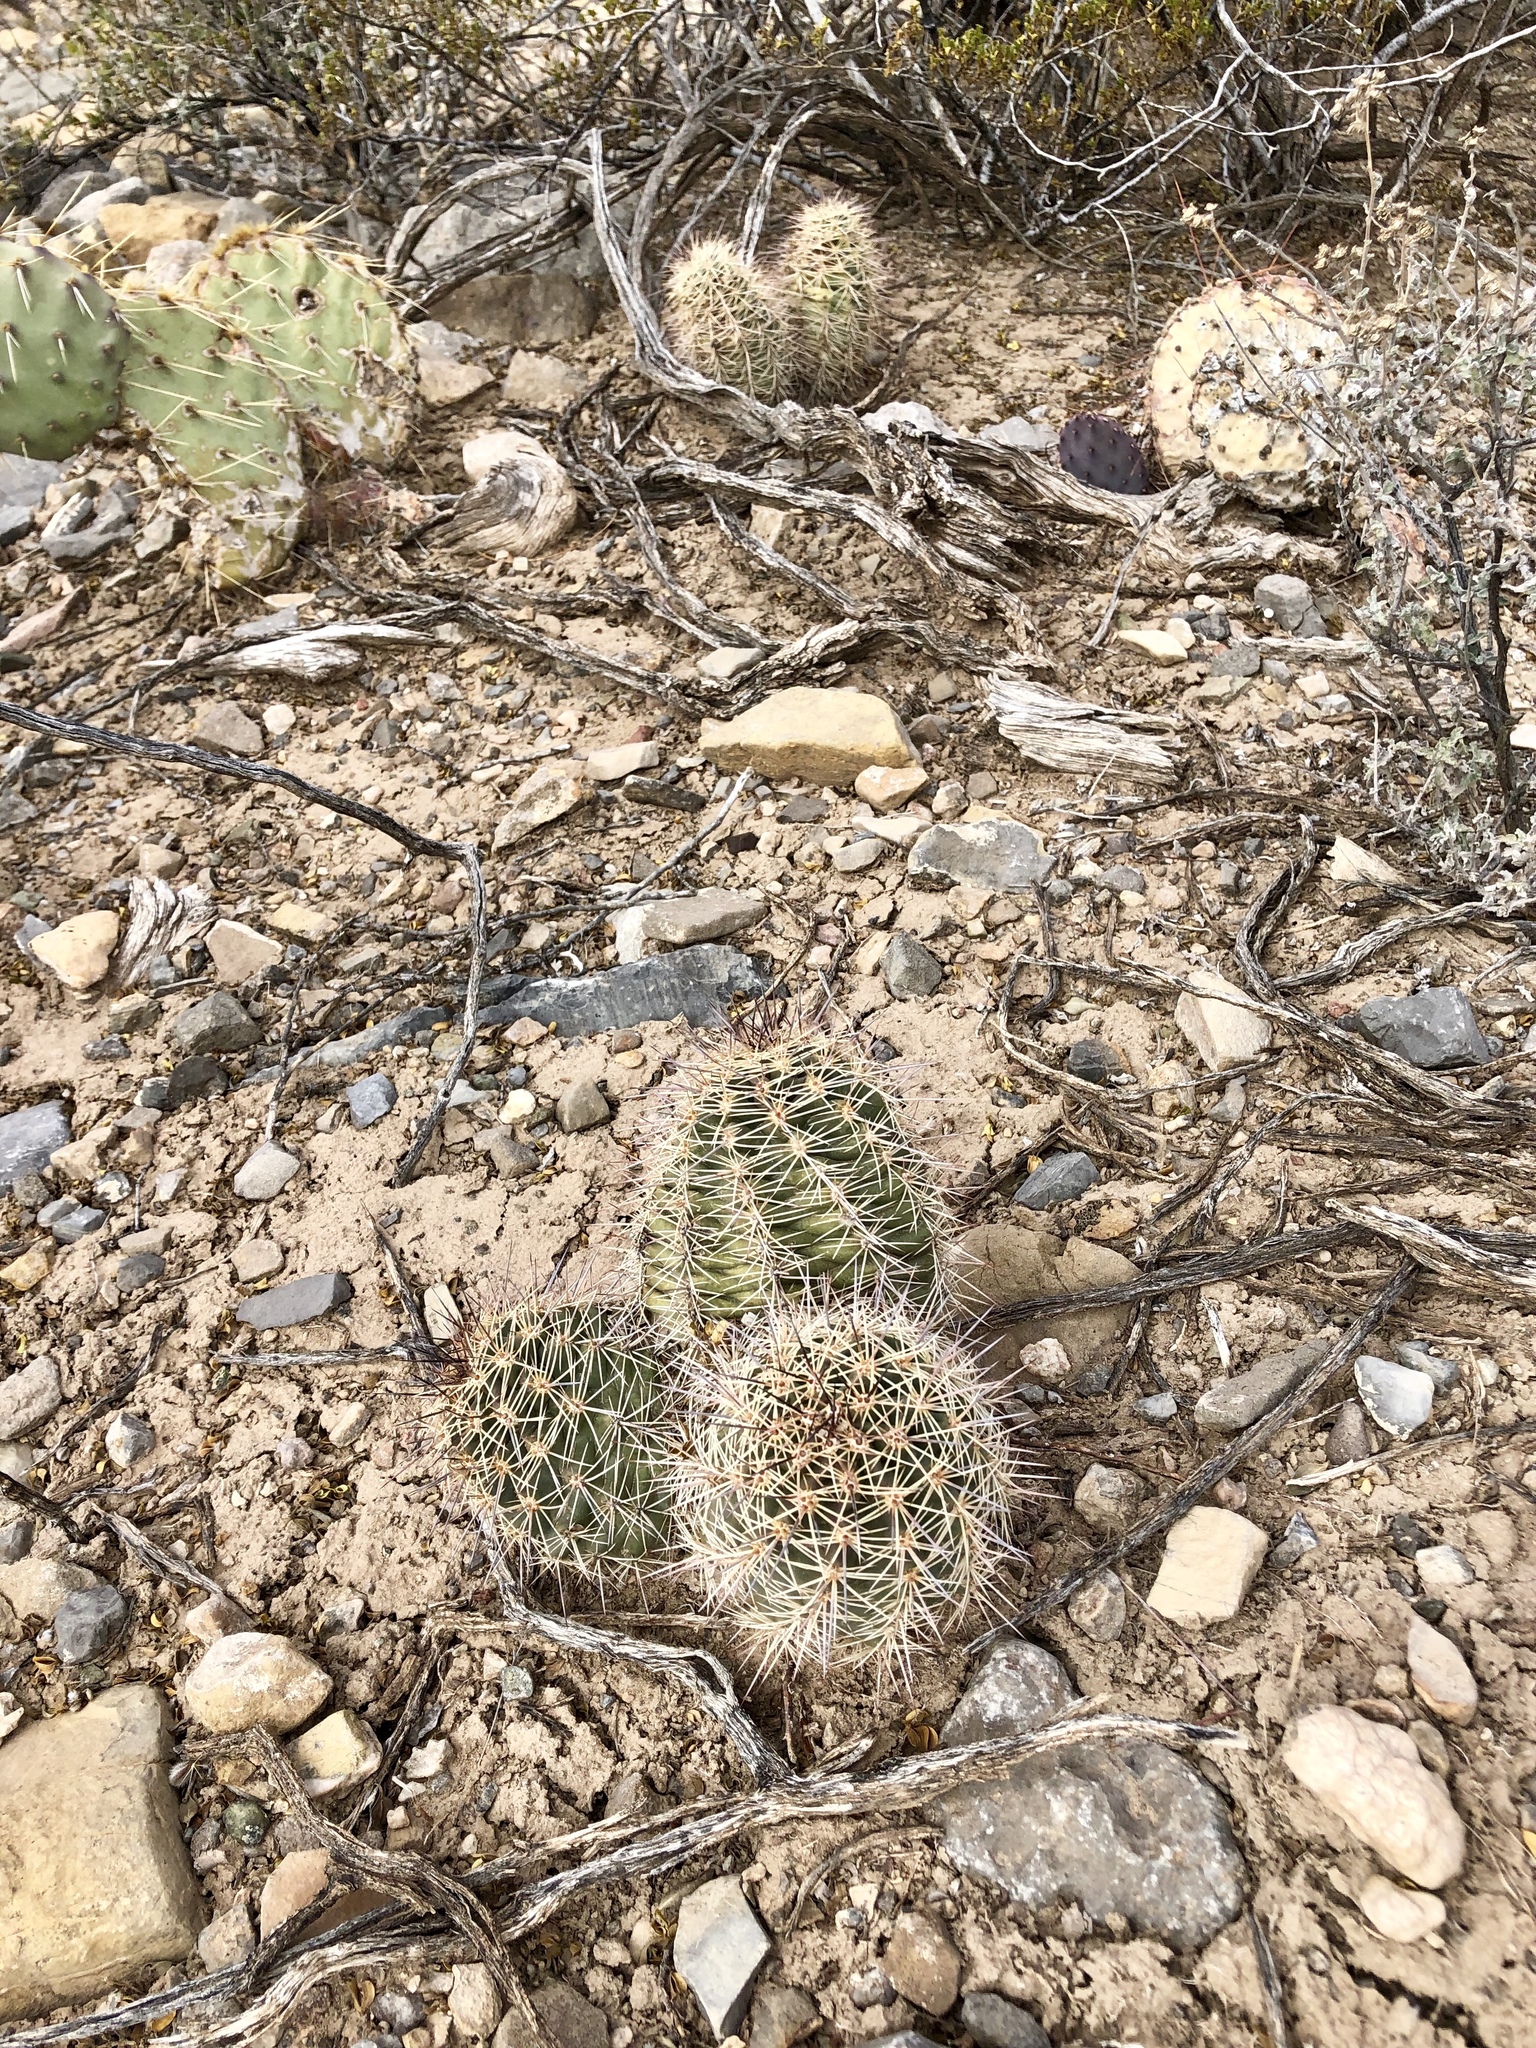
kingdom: Plantae
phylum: Tracheophyta
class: Magnoliopsida
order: Caryophyllales
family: Cactaceae
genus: Echinocereus
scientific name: Echinocereus coccineus
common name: Scarlet hedgehog cactus
